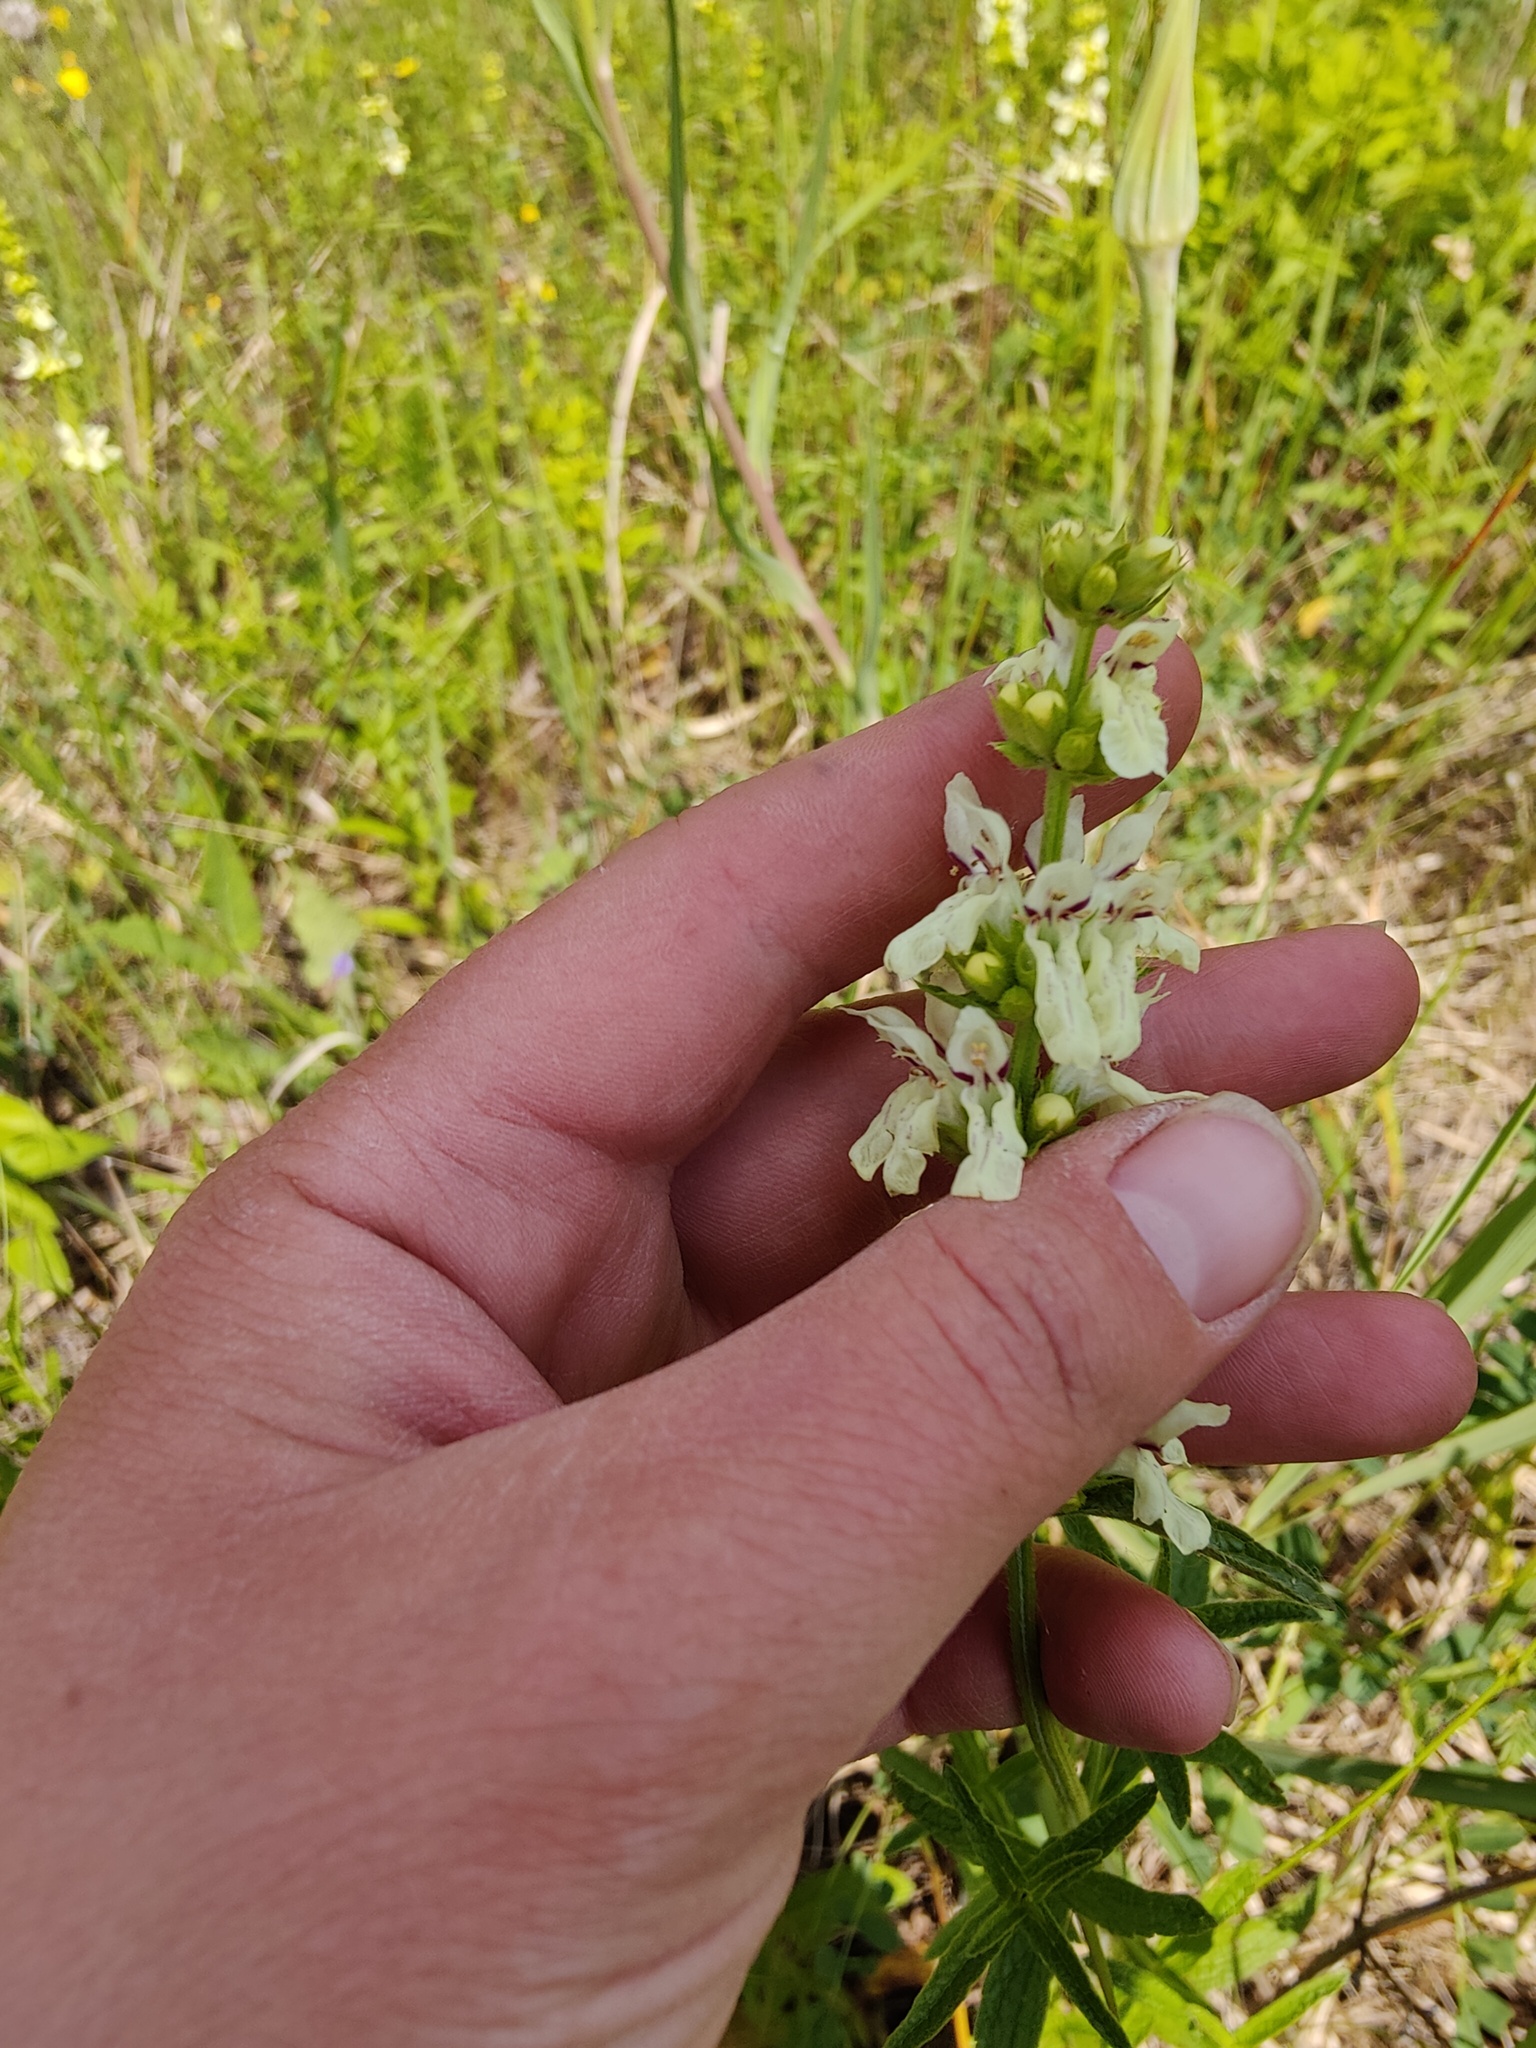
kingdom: Plantae
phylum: Tracheophyta
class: Magnoliopsida
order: Lamiales
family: Lamiaceae
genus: Stachys
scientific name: Stachys recta
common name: Perennial yellow-woundwort
